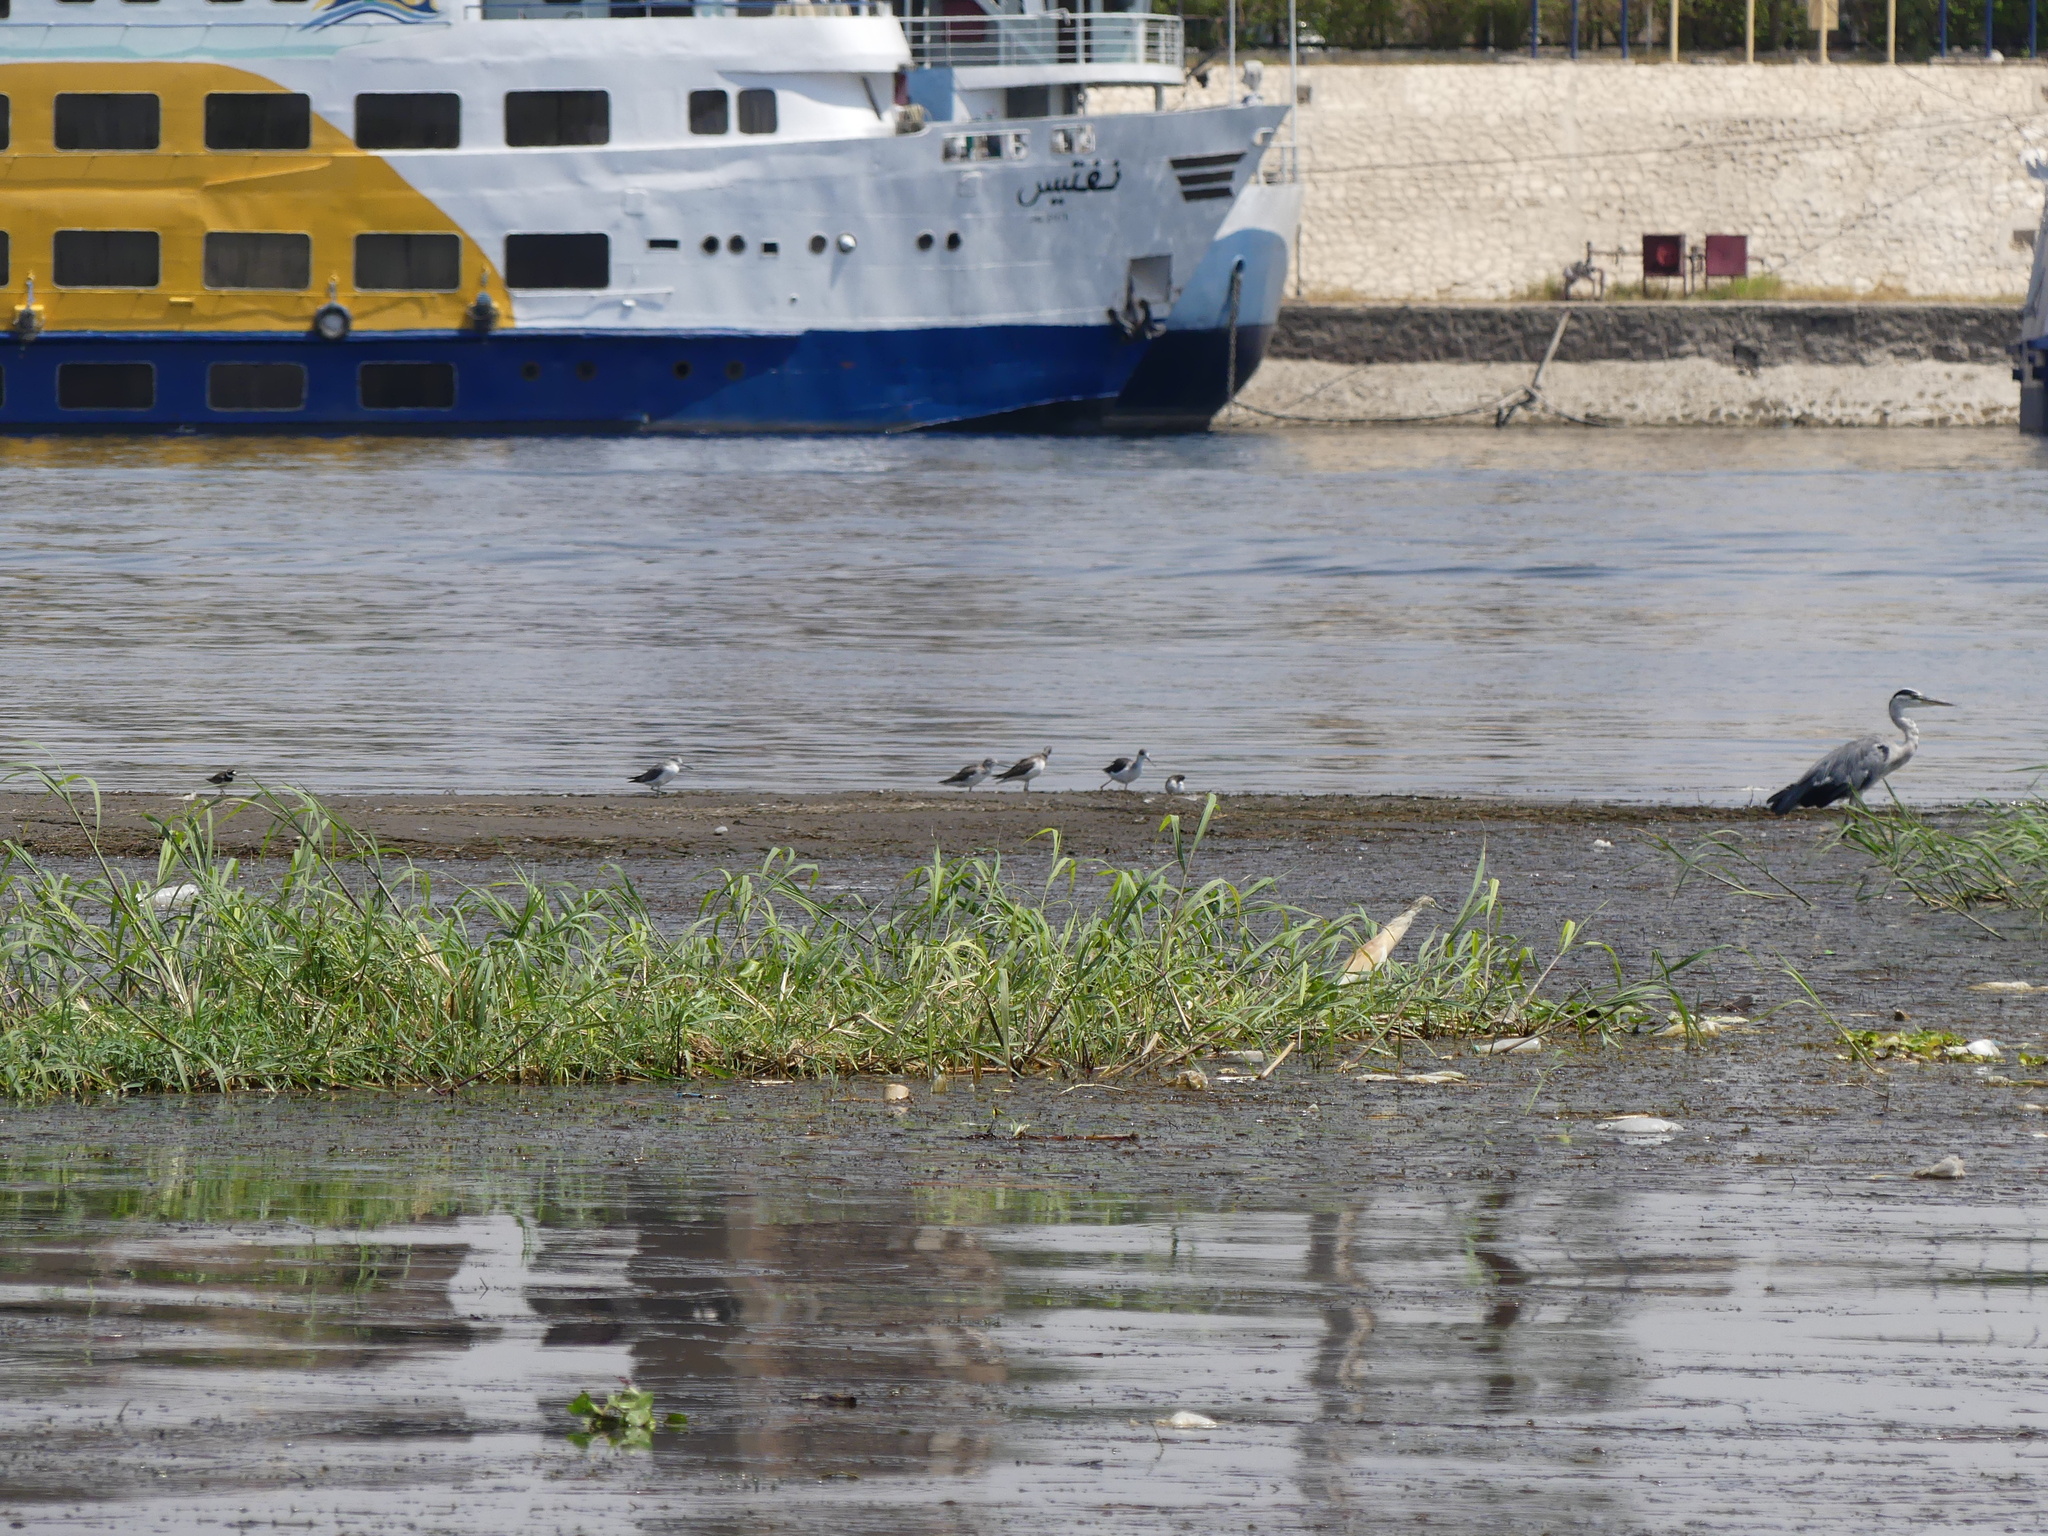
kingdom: Animalia
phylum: Chordata
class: Aves
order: Charadriiformes
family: Recurvirostridae
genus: Himantopus
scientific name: Himantopus himantopus
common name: Black-winged stilt
